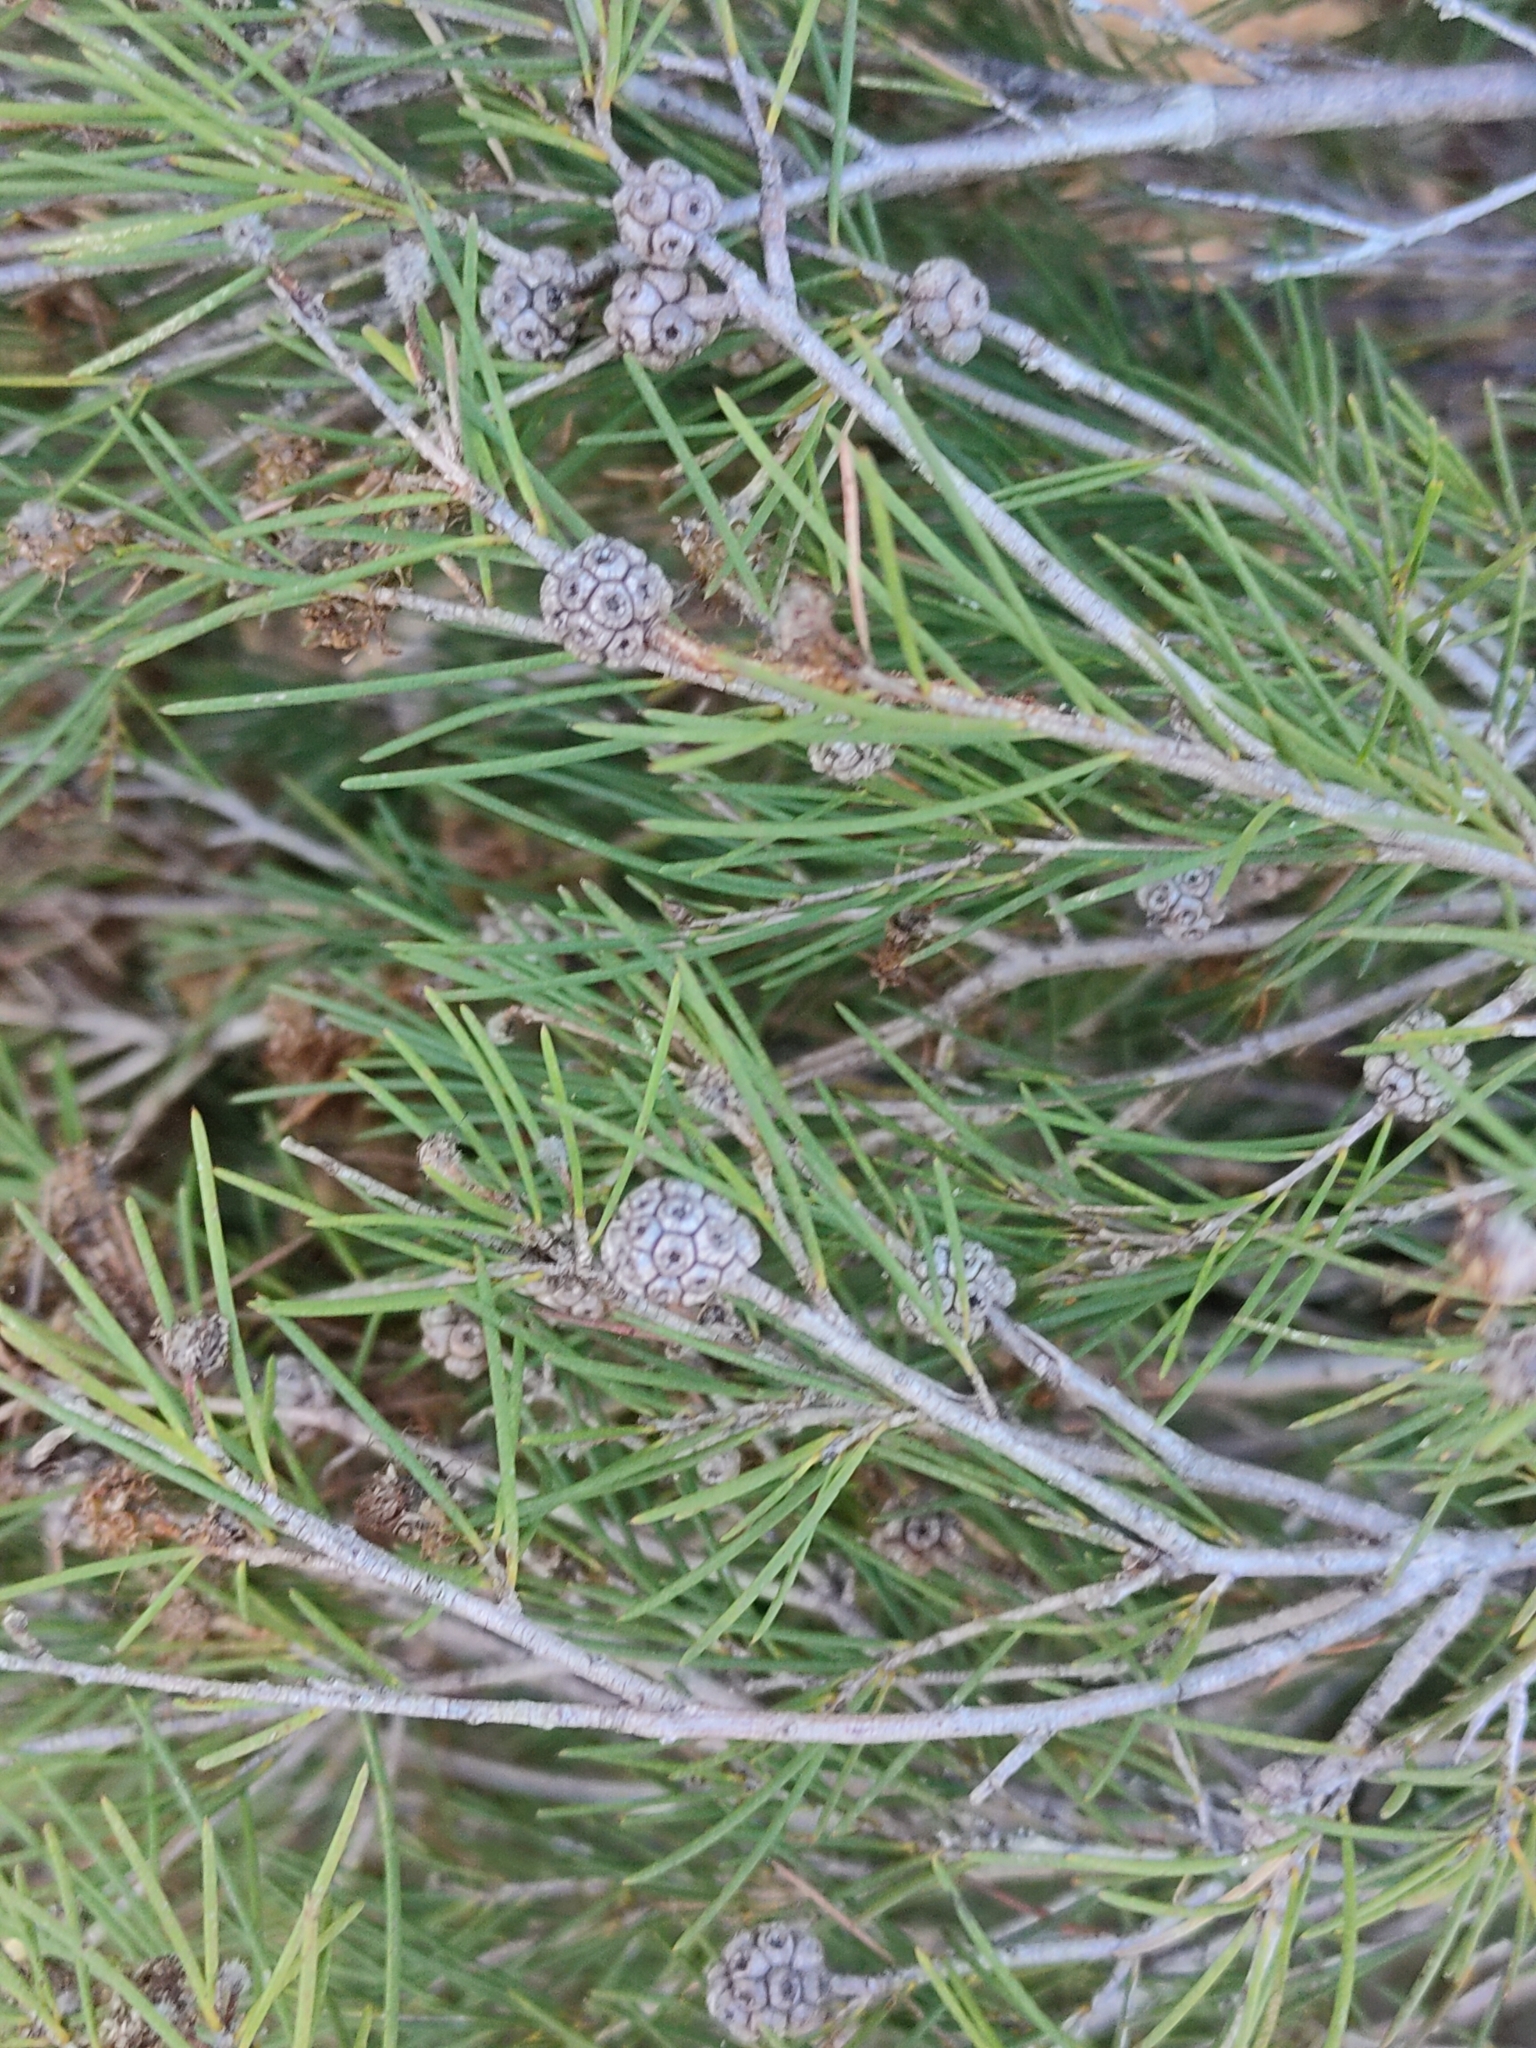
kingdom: Plantae
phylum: Tracheophyta
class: Magnoliopsida
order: Myrtales
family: Myrtaceae
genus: Melaleuca
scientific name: Melaleuca nodosa
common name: Prickly-leaf paperbark
